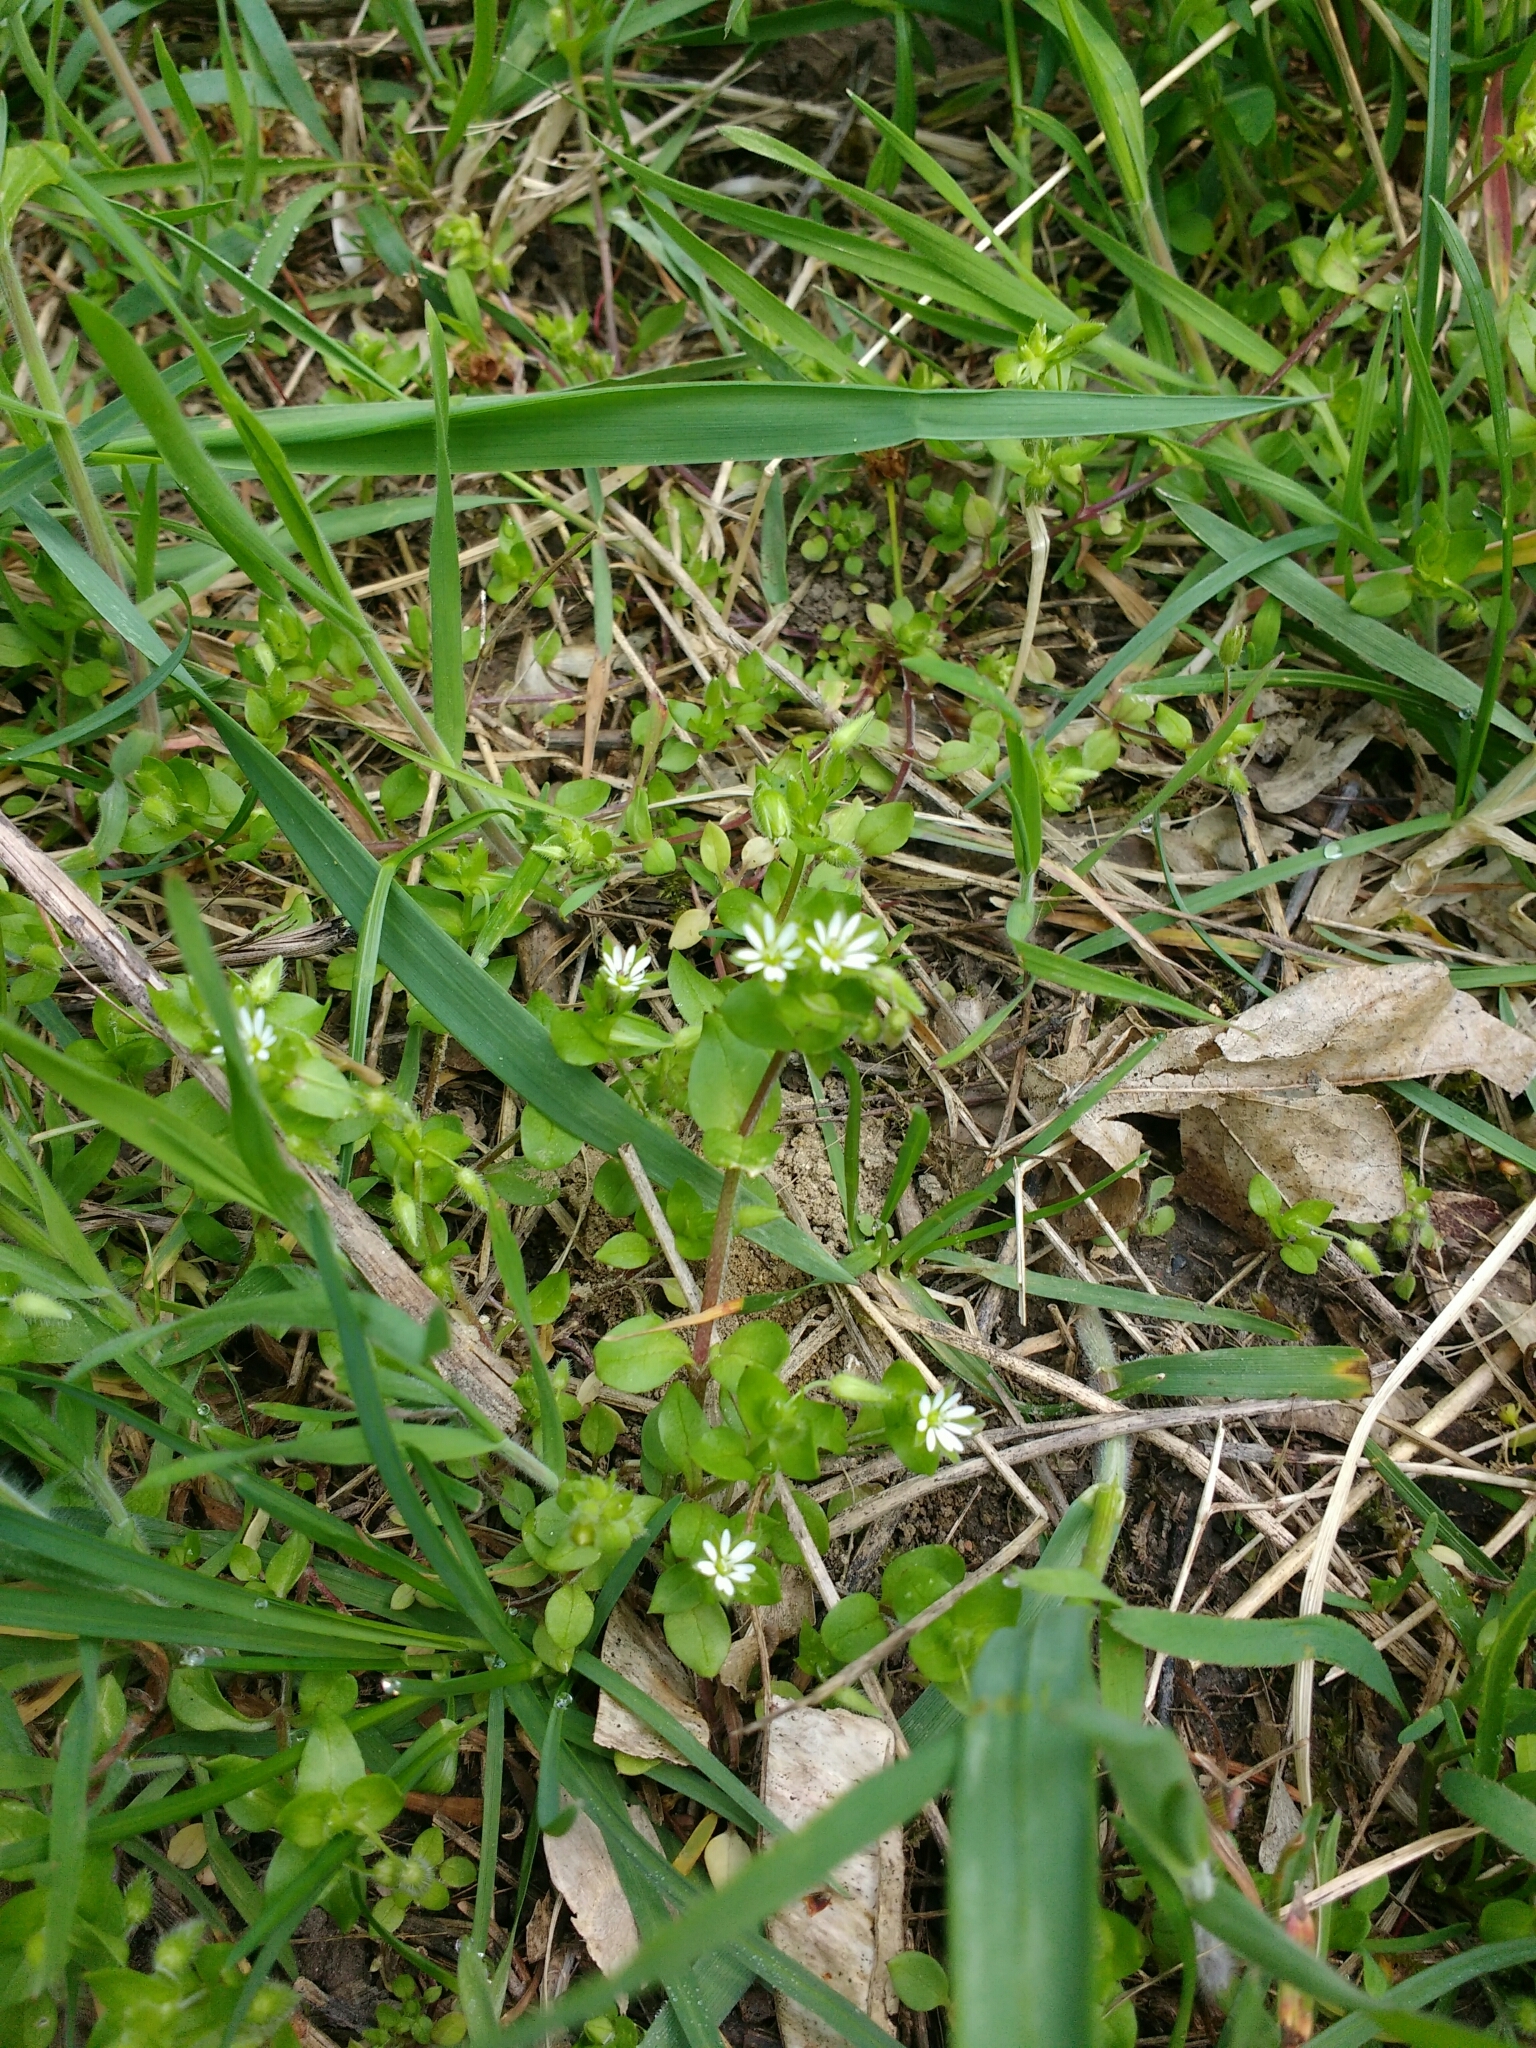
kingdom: Plantae
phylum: Tracheophyta
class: Magnoliopsida
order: Caryophyllales
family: Caryophyllaceae
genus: Stellaria
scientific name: Stellaria media
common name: Common chickweed
